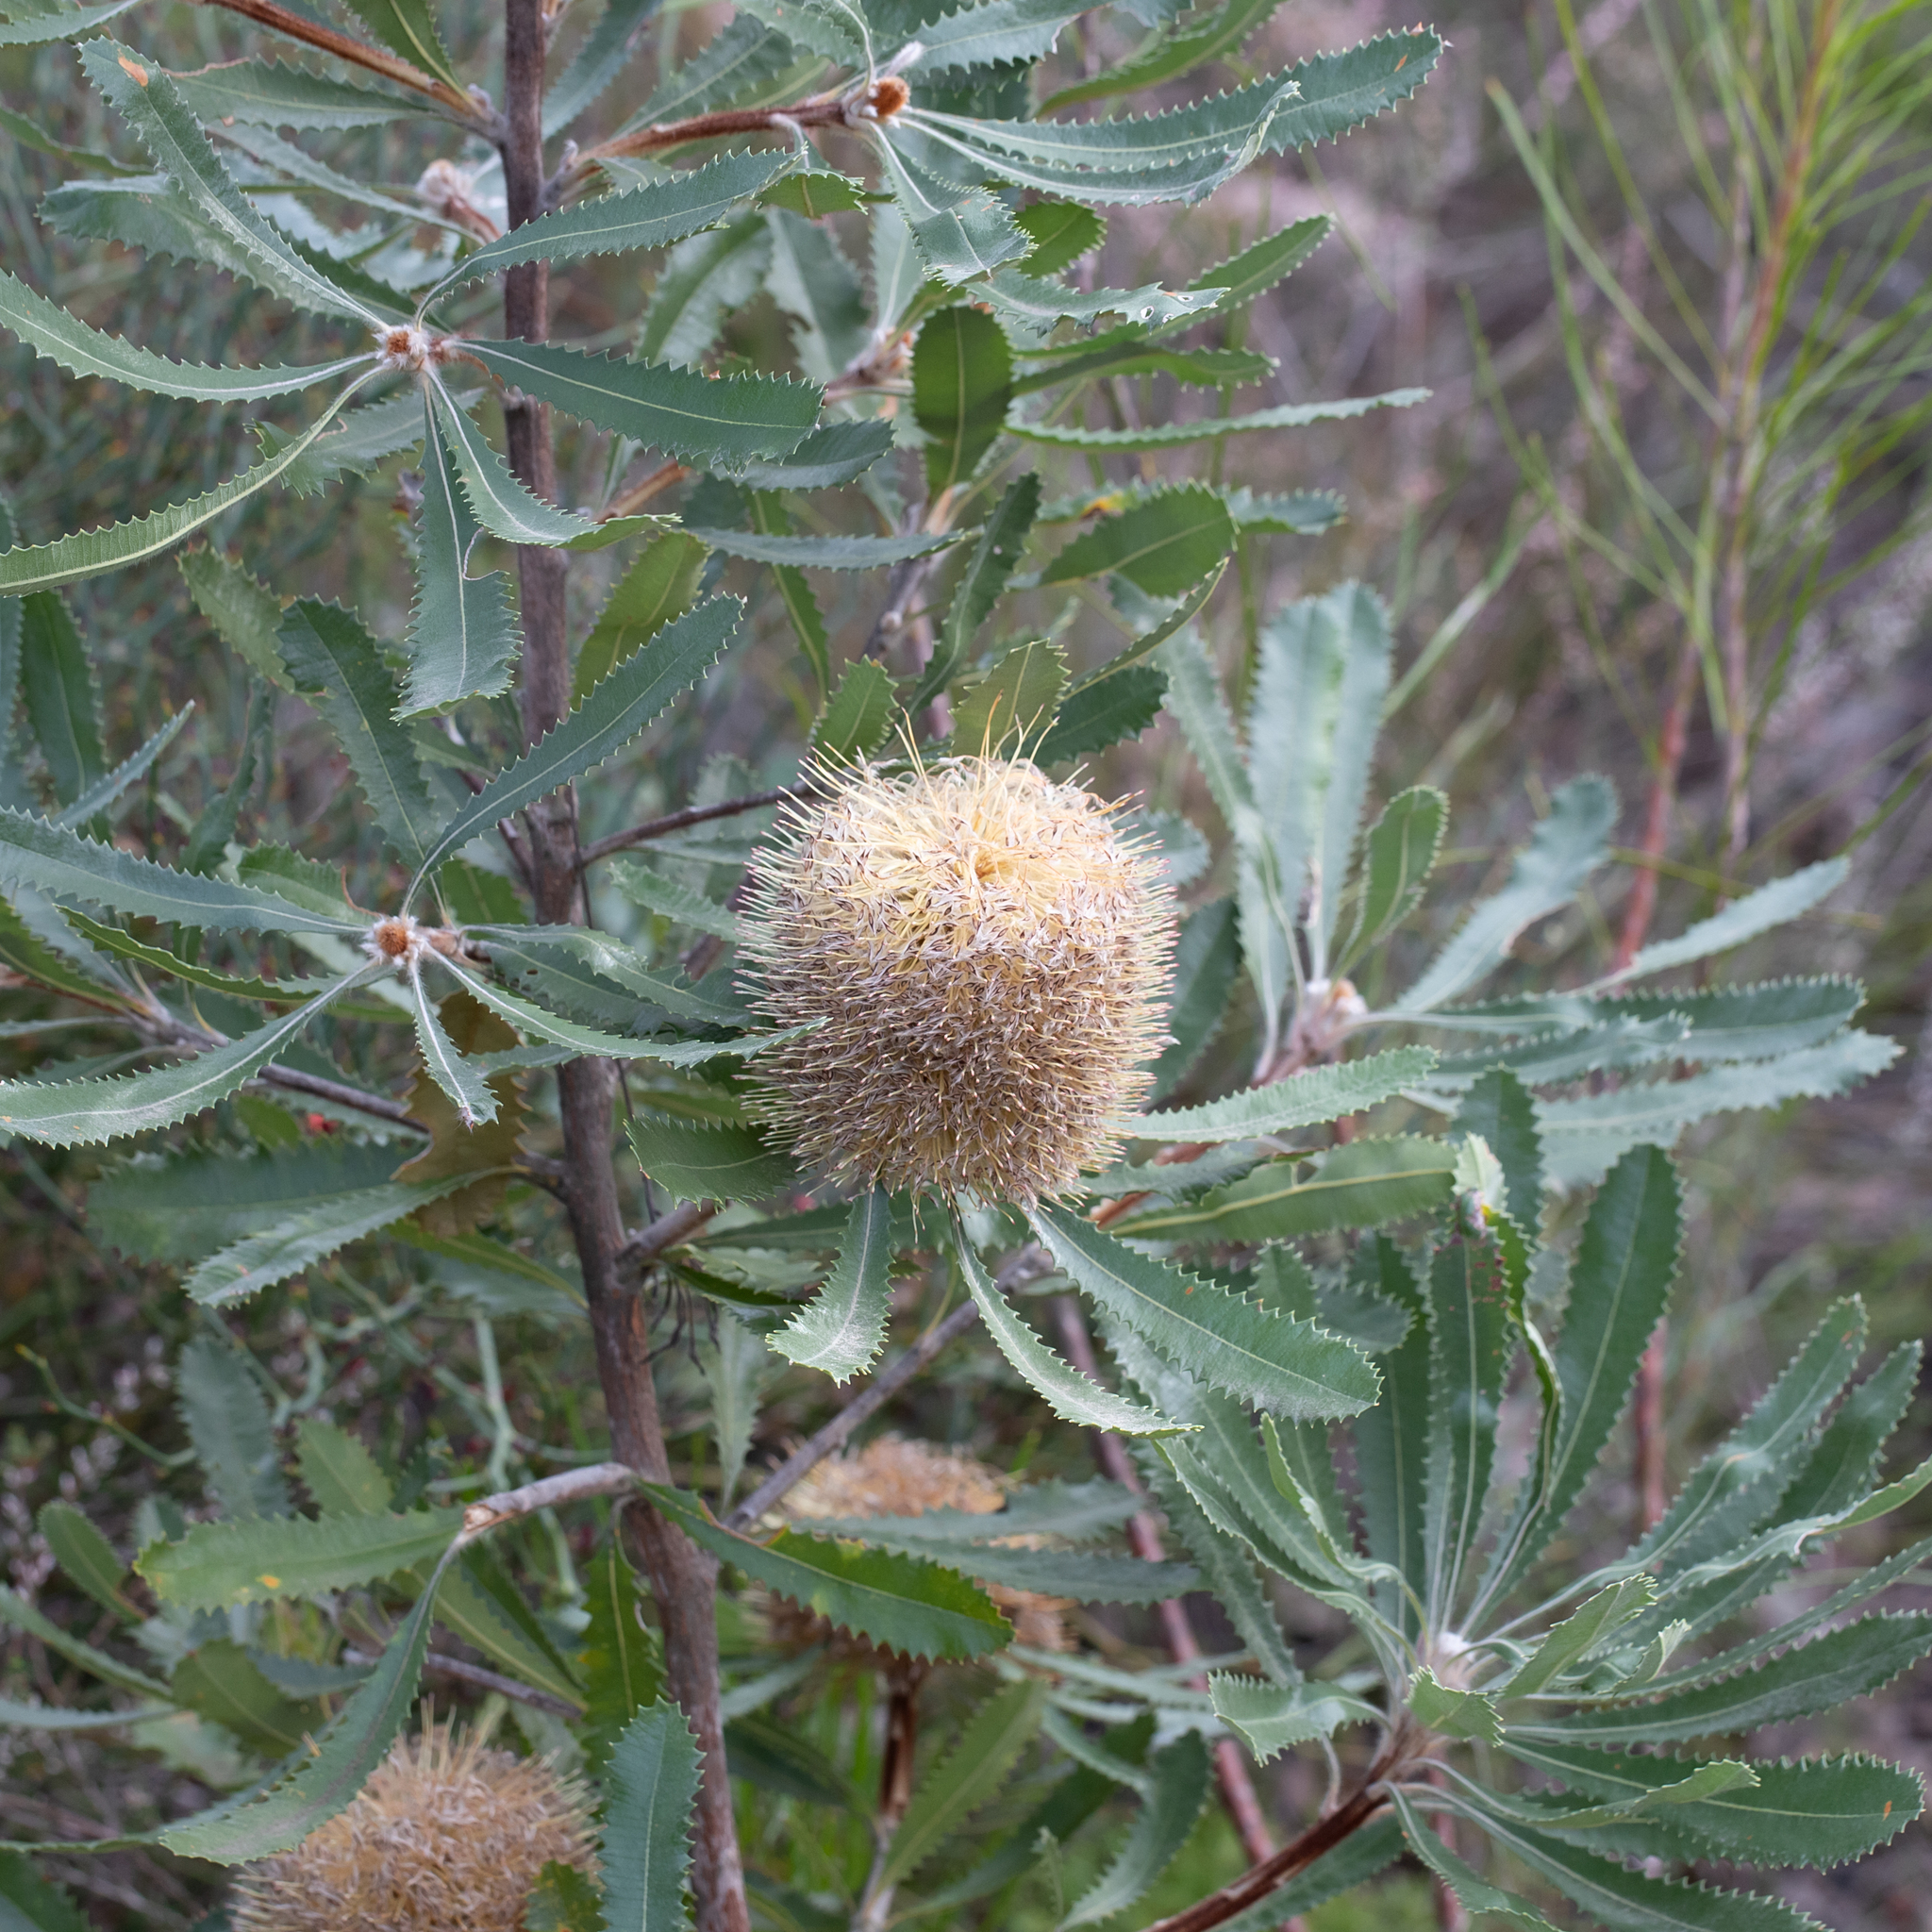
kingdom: Plantae
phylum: Tracheophyta
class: Magnoliopsida
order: Proteales
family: Proteaceae
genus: Banksia
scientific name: Banksia ornata
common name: Desert banksia
